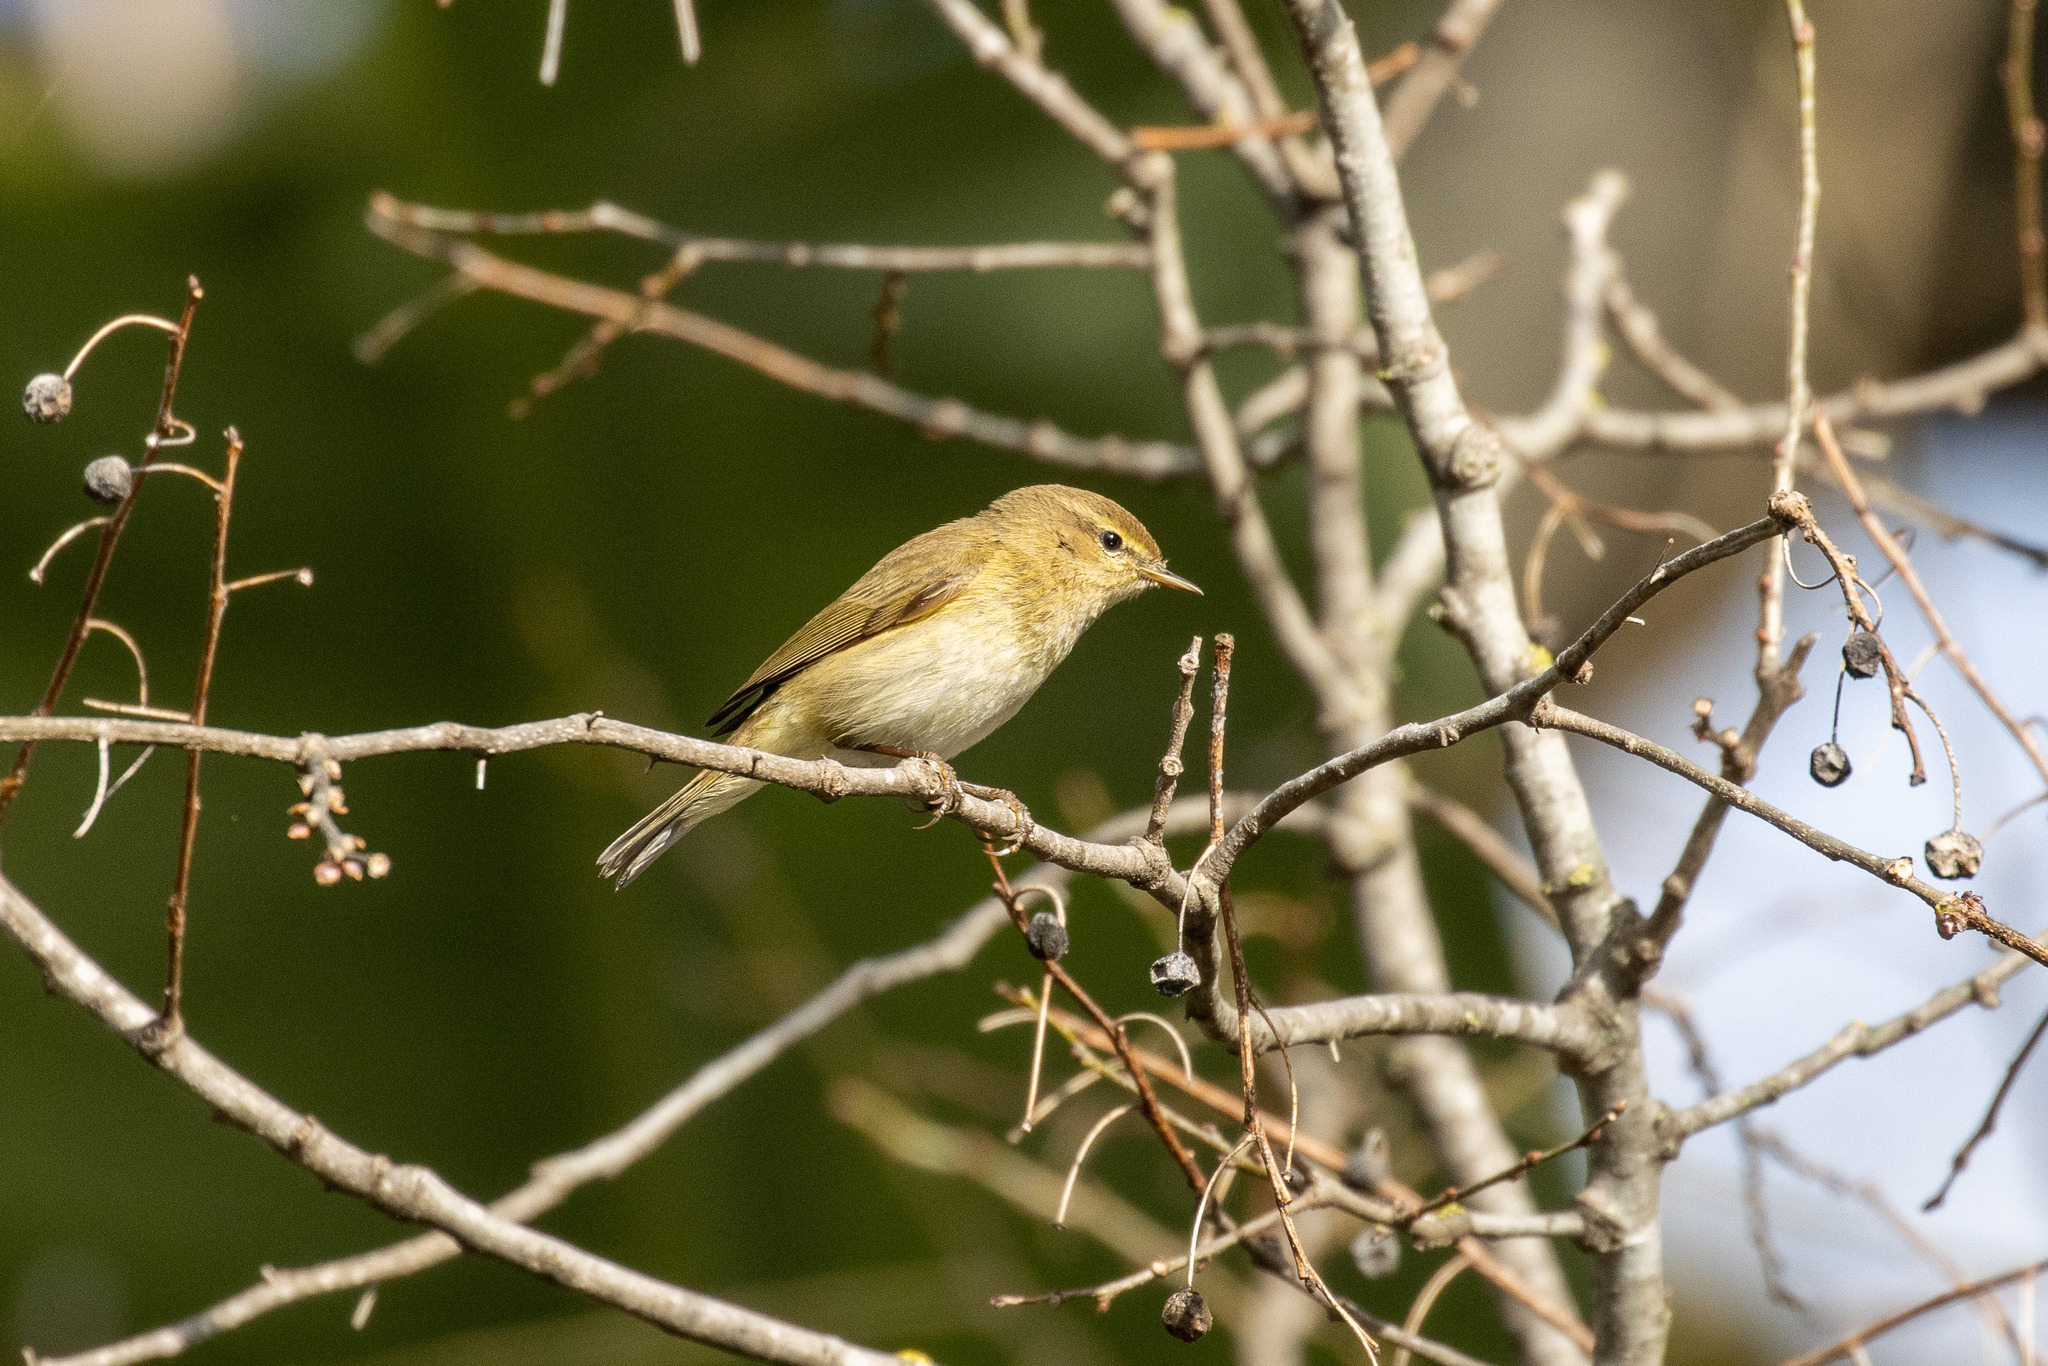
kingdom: Animalia
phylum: Chordata
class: Aves
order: Passeriformes
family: Phylloscopidae
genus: Phylloscopus
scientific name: Phylloscopus collybita
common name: Common chiffchaff
